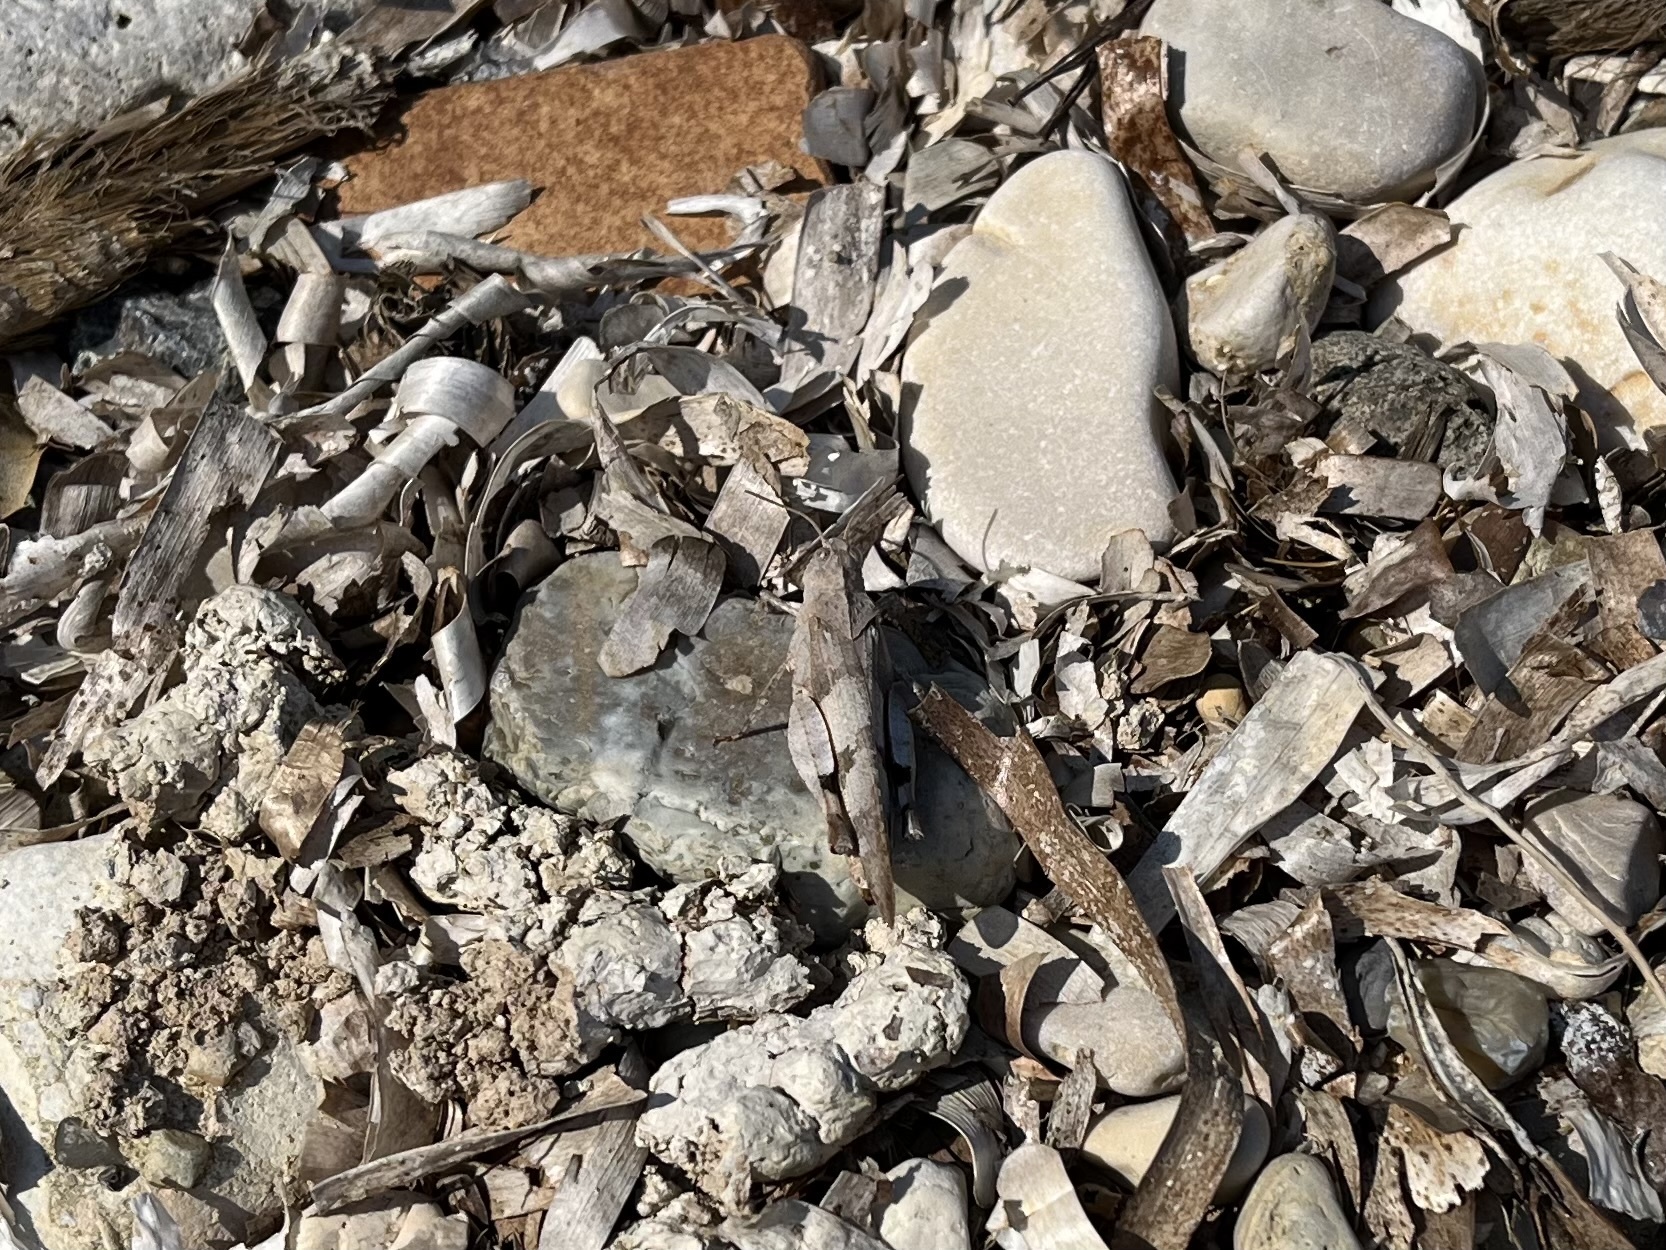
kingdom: Animalia
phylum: Arthropoda
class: Insecta
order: Orthoptera
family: Acrididae
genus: Oedipoda
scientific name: Oedipoda caerulescens
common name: Blue-winged grasshopper
